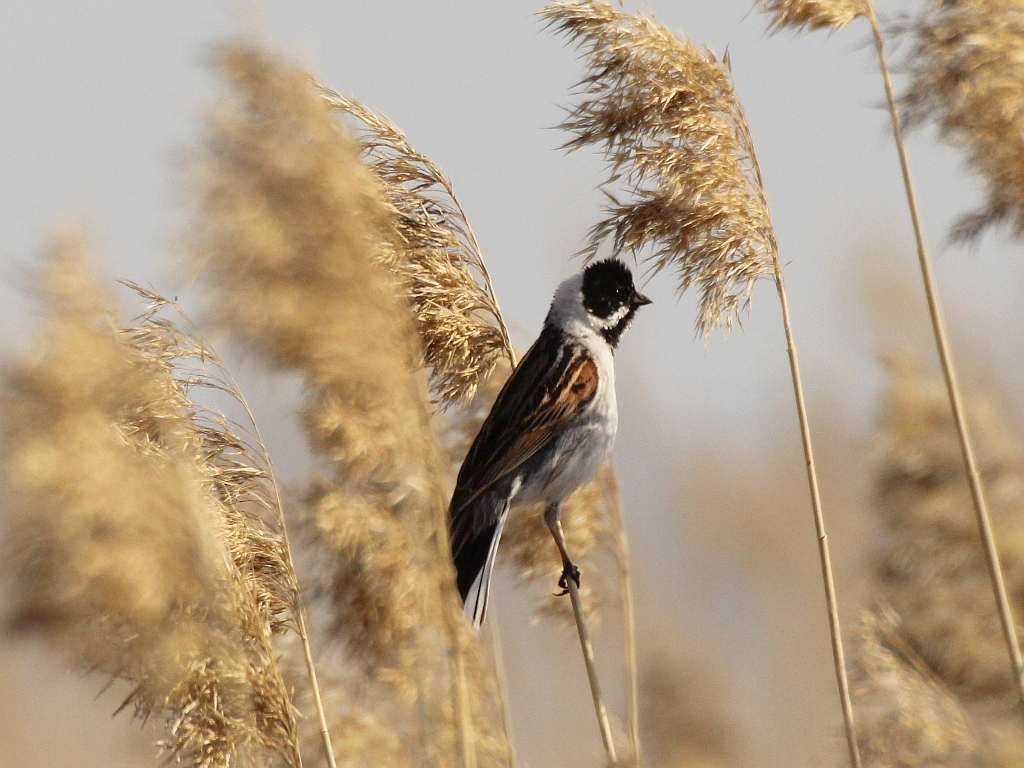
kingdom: Animalia
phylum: Chordata
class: Aves
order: Passeriformes
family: Emberizidae
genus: Emberiza
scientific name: Emberiza schoeniclus
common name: Reed bunting
